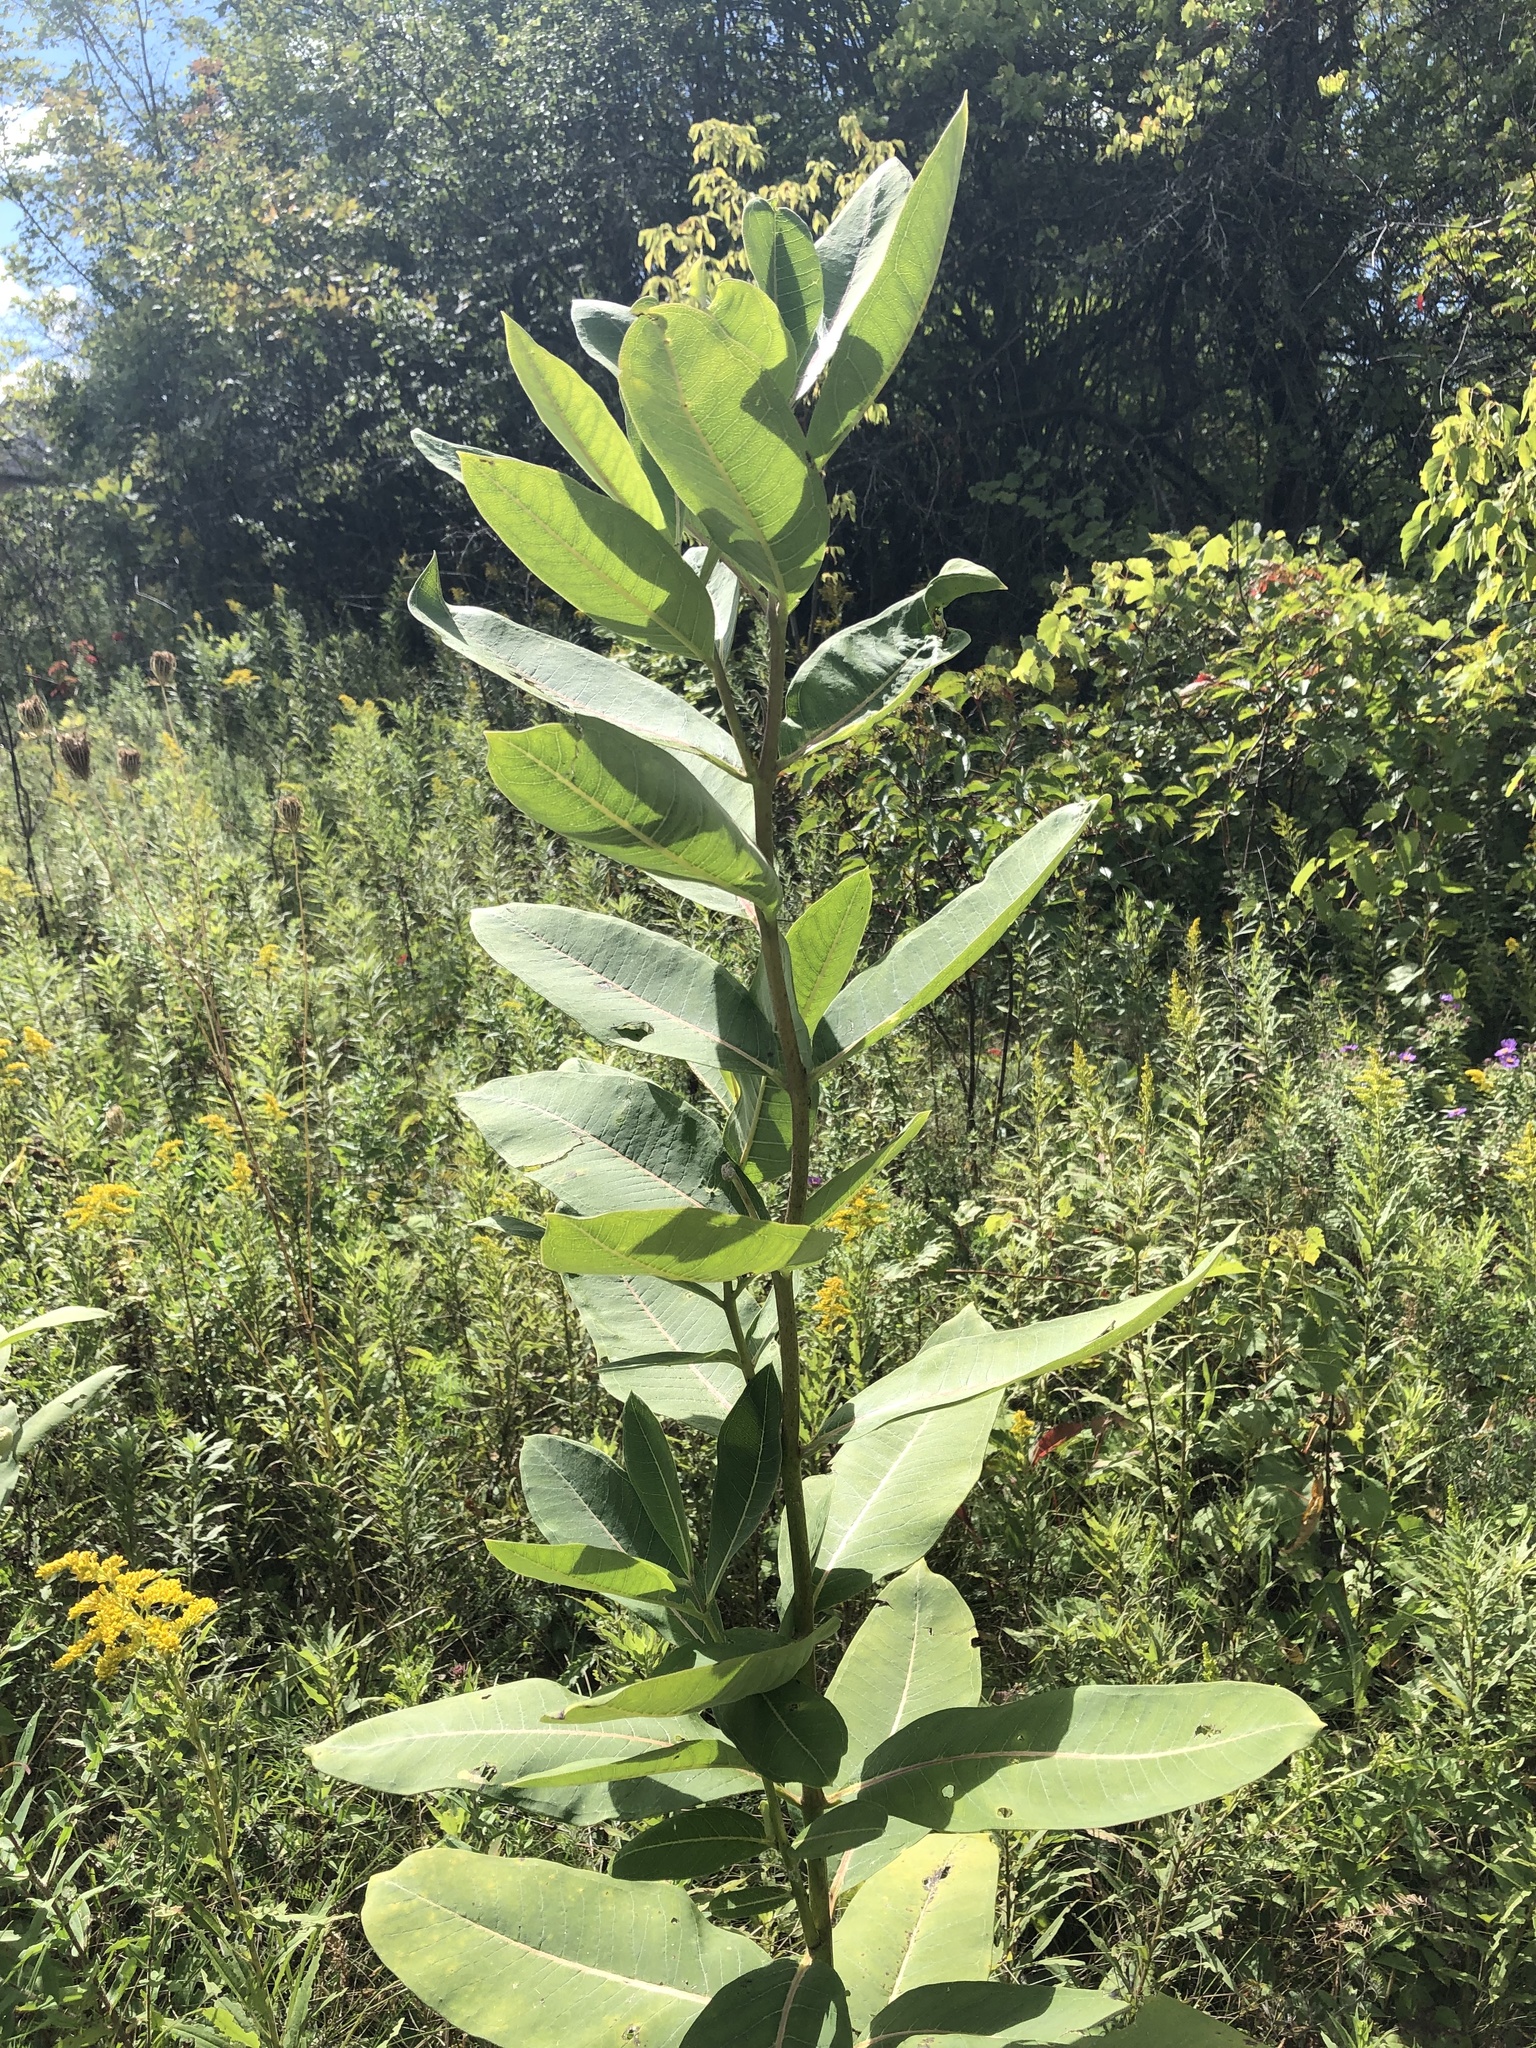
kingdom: Plantae
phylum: Tracheophyta
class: Magnoliopsida
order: Gentianales
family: Apocynaceae
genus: Asclepias
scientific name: Asclepias syriaca
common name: Common milkweed
